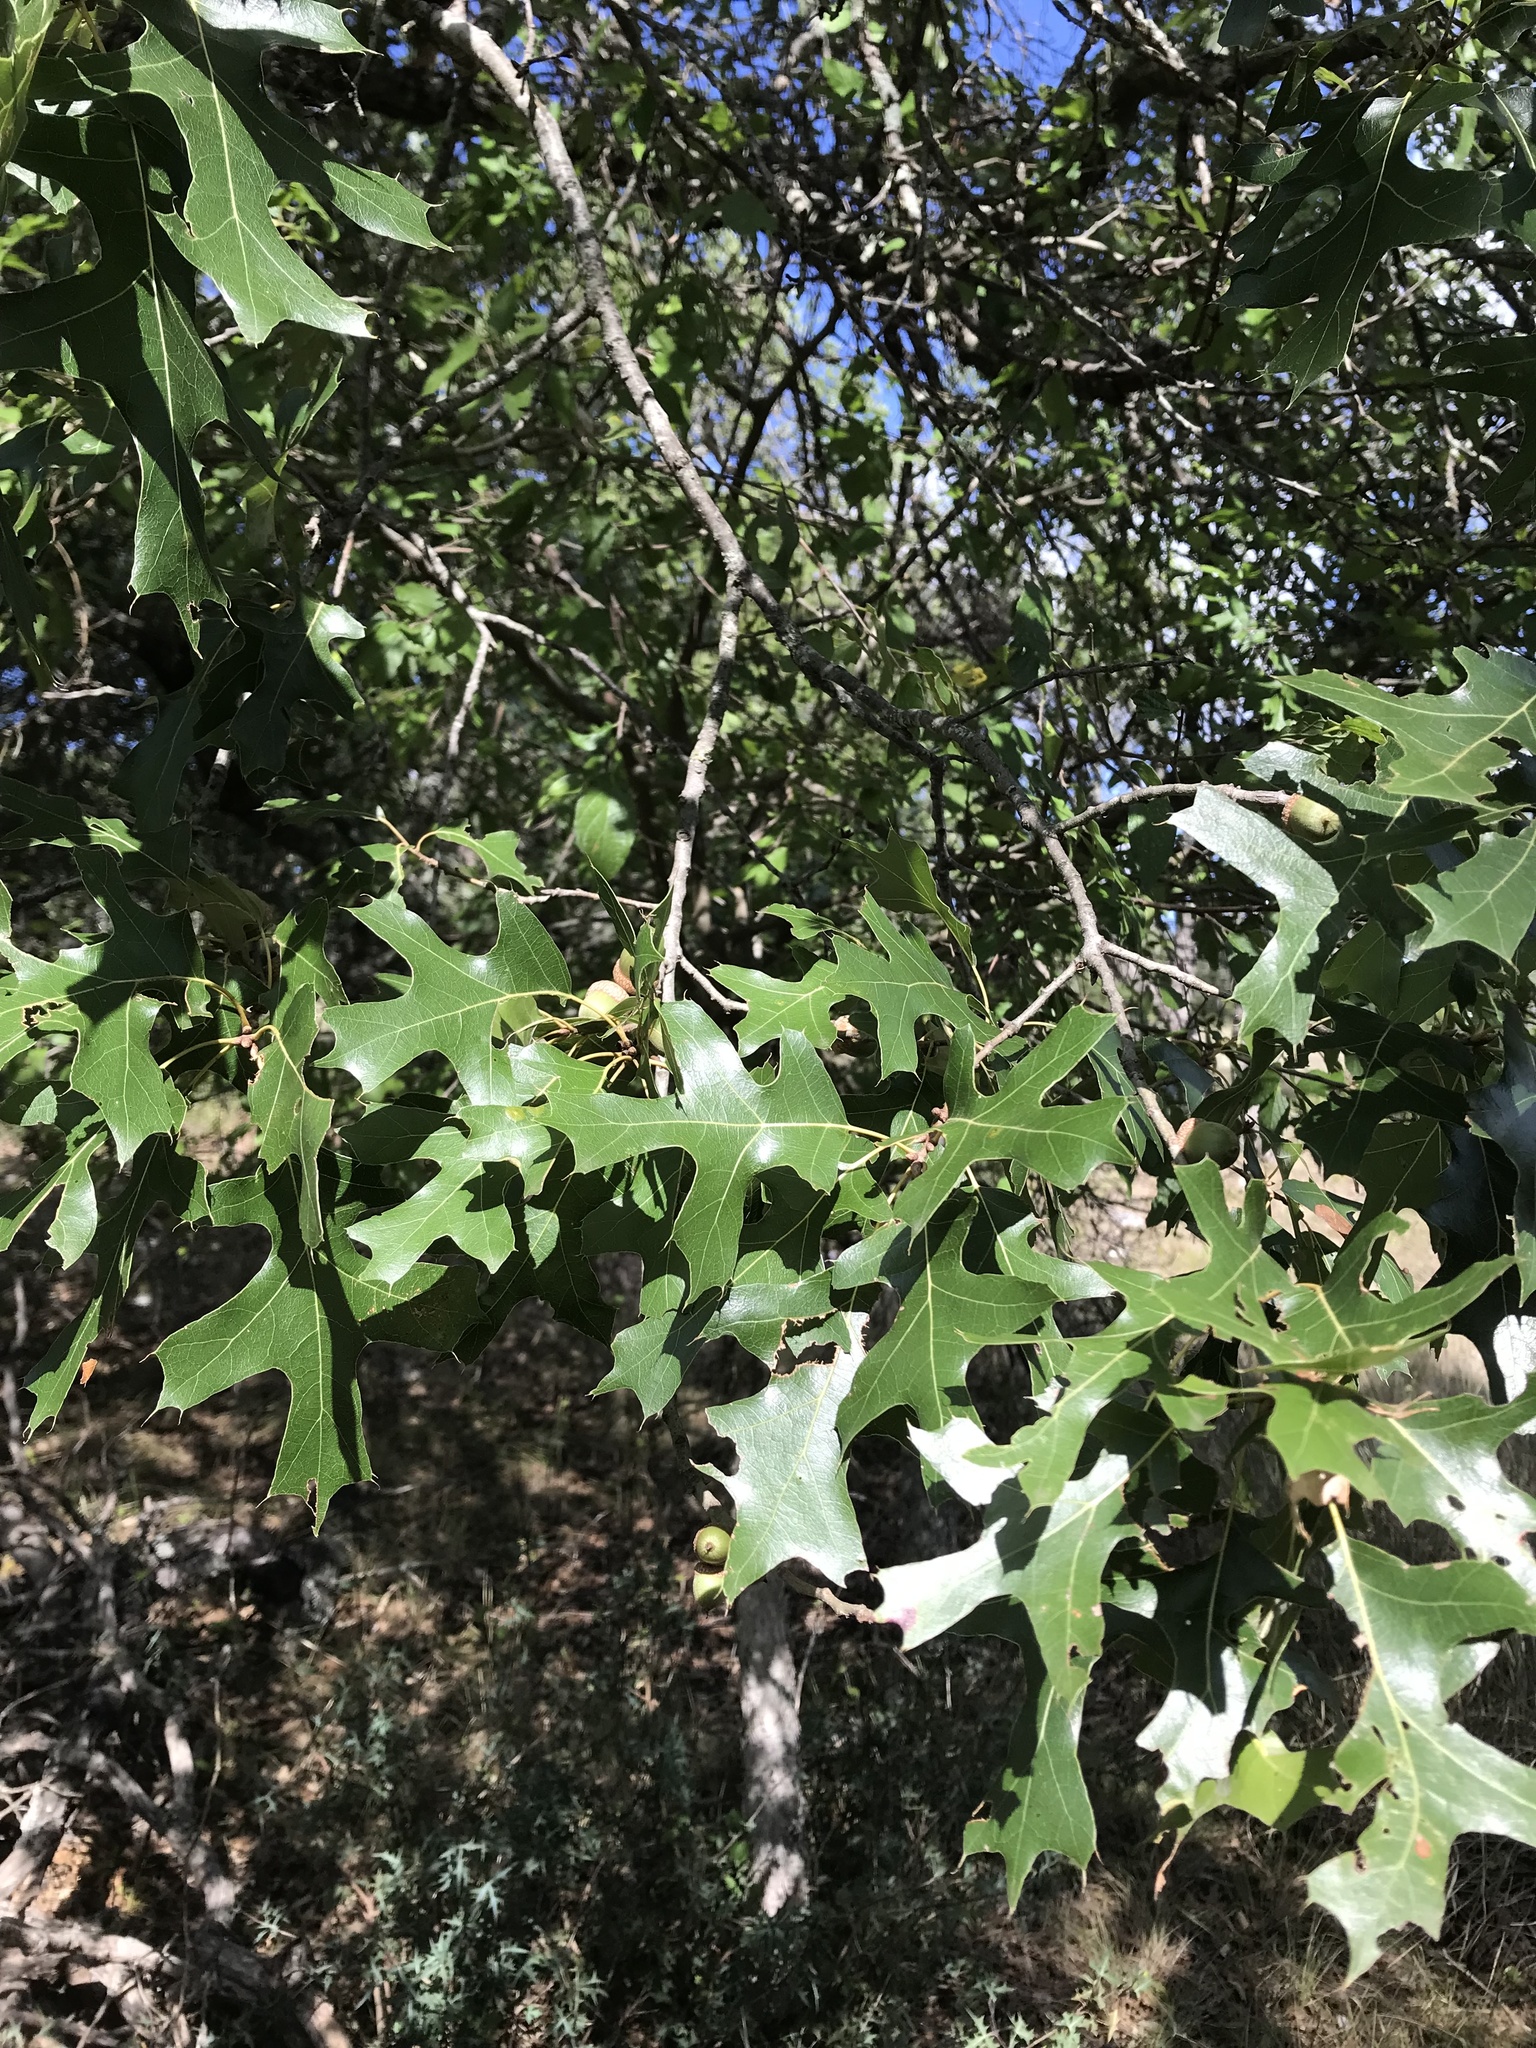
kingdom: Plantae
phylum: Tracheophyta
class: Magnoliopsida
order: Fagales
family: Fagaceae
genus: Quercus
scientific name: Quercus buckleyi
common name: Buckley oak
